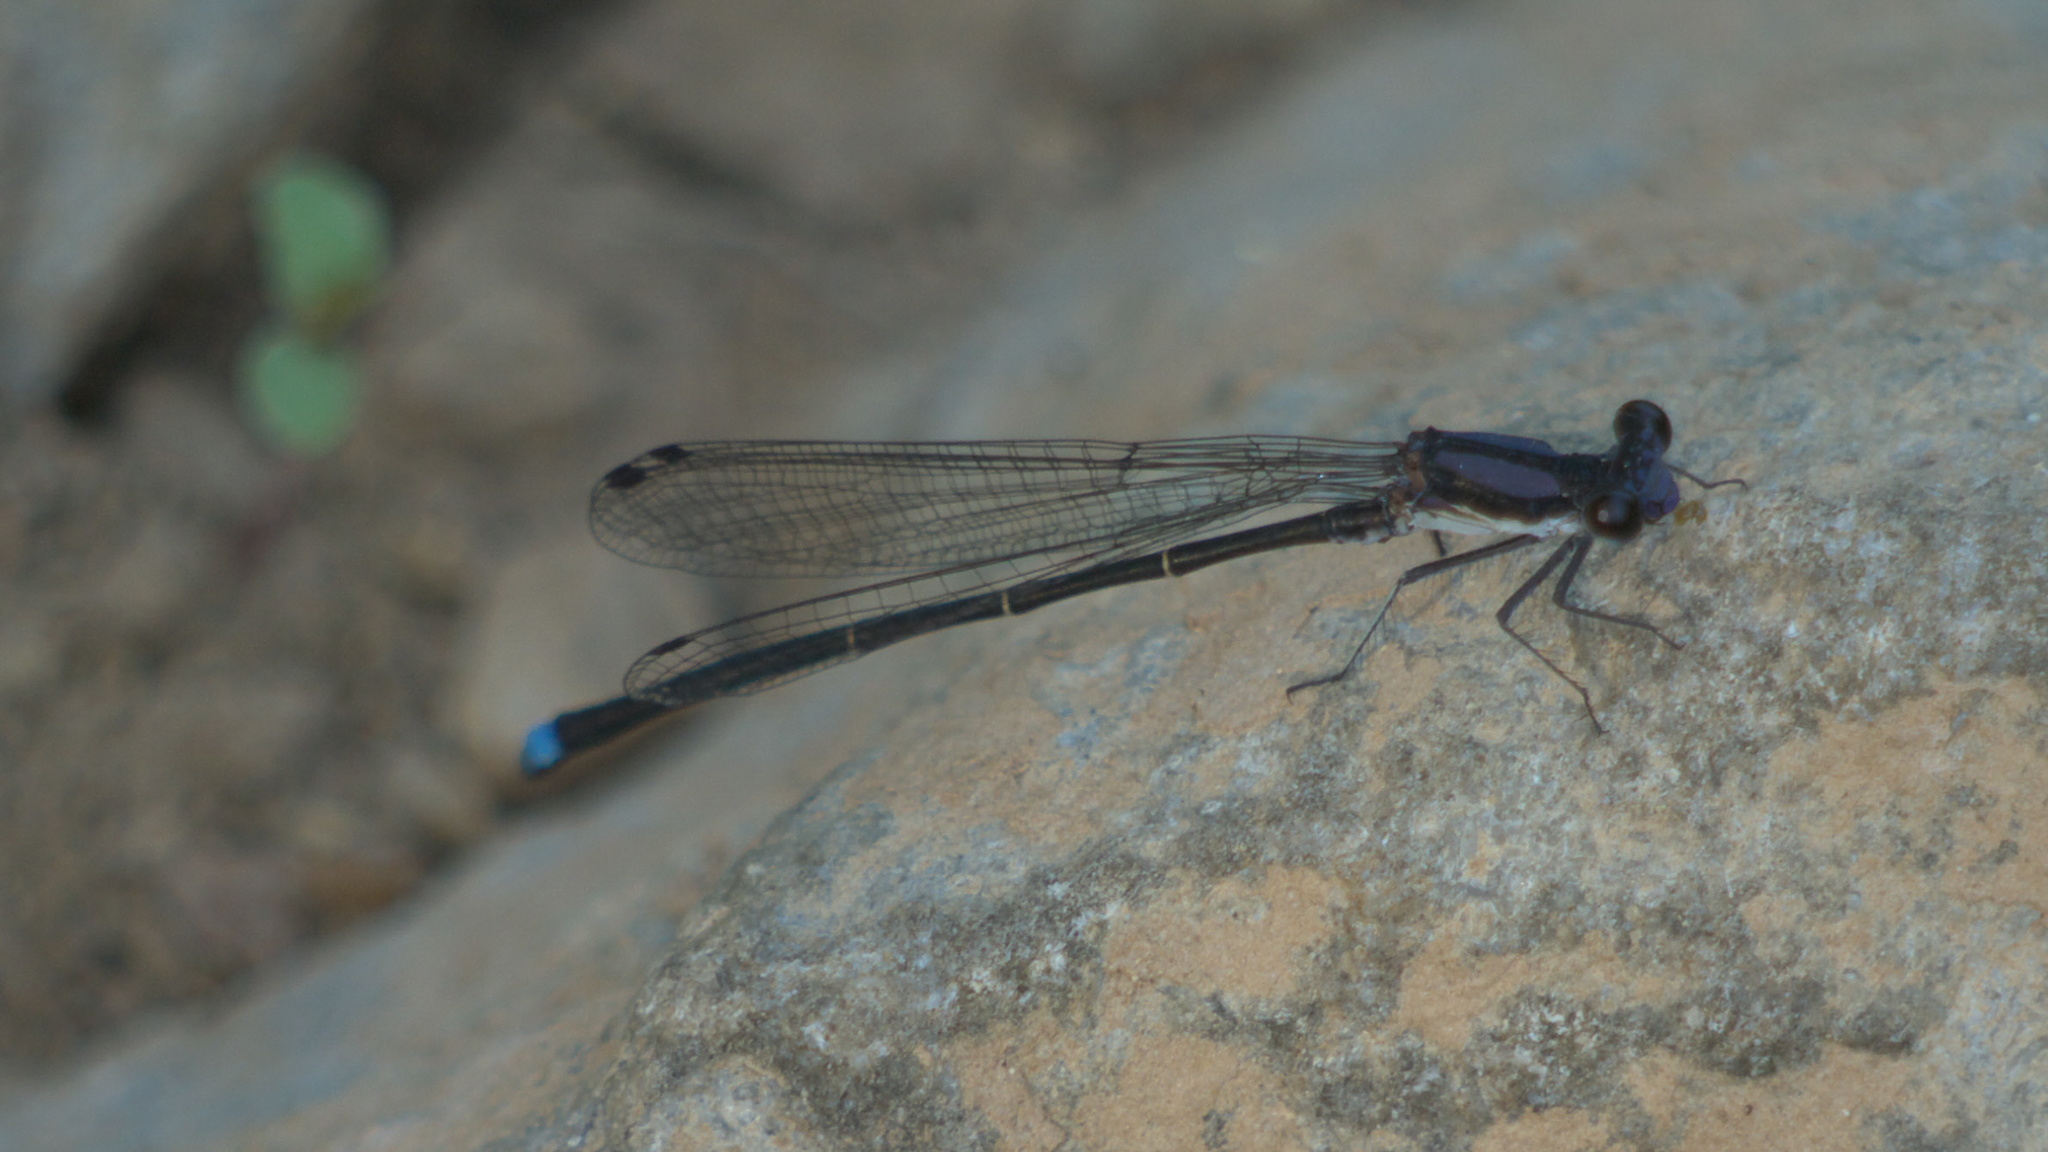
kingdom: Animalia
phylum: Arthropoda
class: Insecta
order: Odonata
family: Coenagrionidae
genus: Argia
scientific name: Argia tibialis
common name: Blue-tipped dancer
